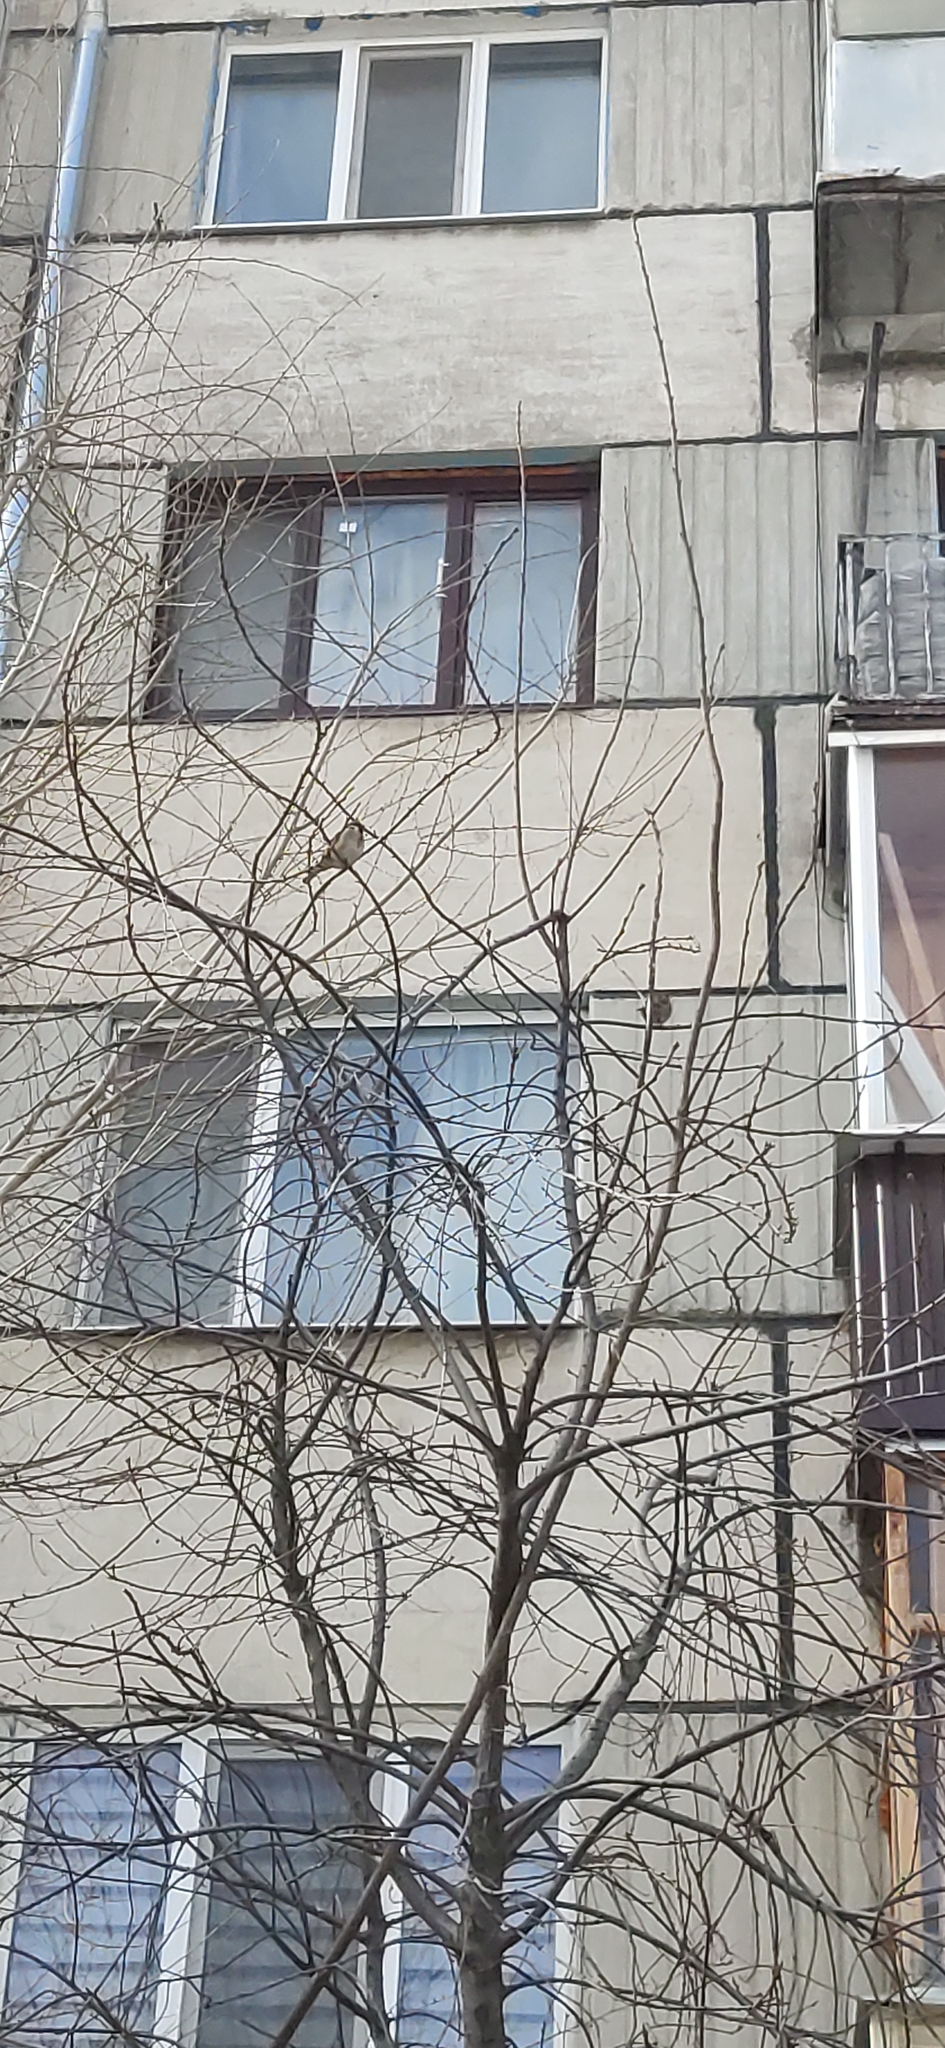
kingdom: Animalia
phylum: Chordata
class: Aves
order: Passeriformes
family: Passeridae
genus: Passer
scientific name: Passer montanus
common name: Eurasian tree sparrow
